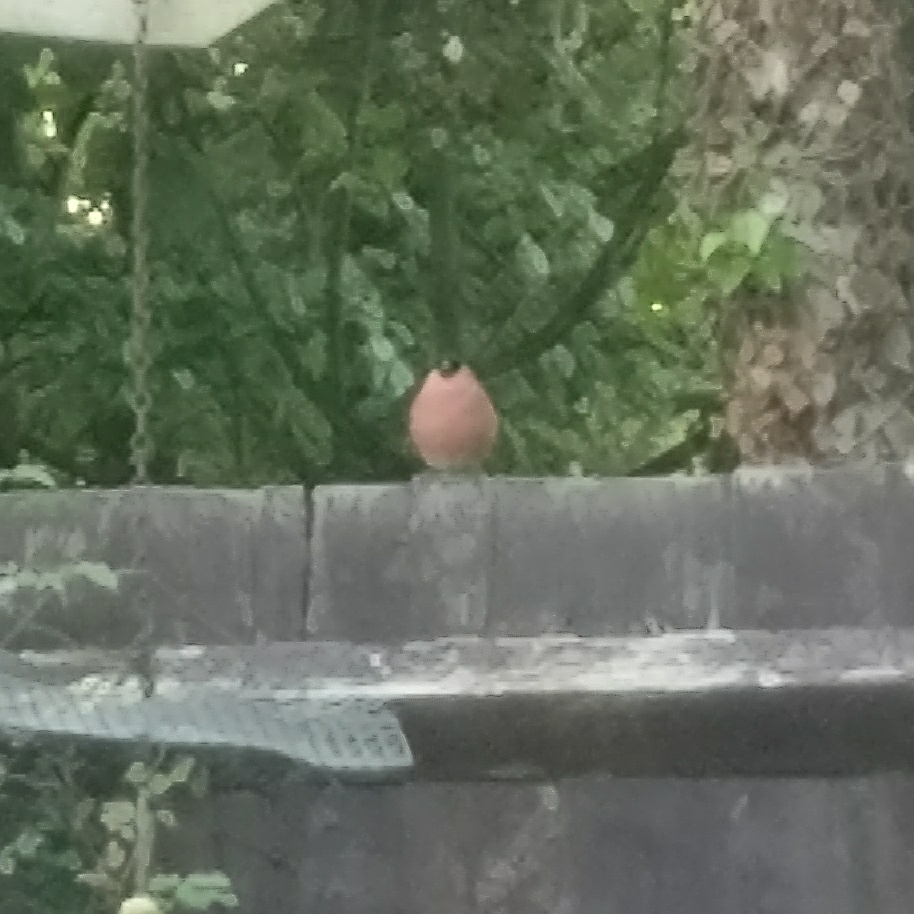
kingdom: Animalia
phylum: Chordata
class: Aves
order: Passeriformes
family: Fringillidae
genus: Pyrrhula
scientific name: Pyrrhula pyrrhula
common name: Eurasian bullfinch
